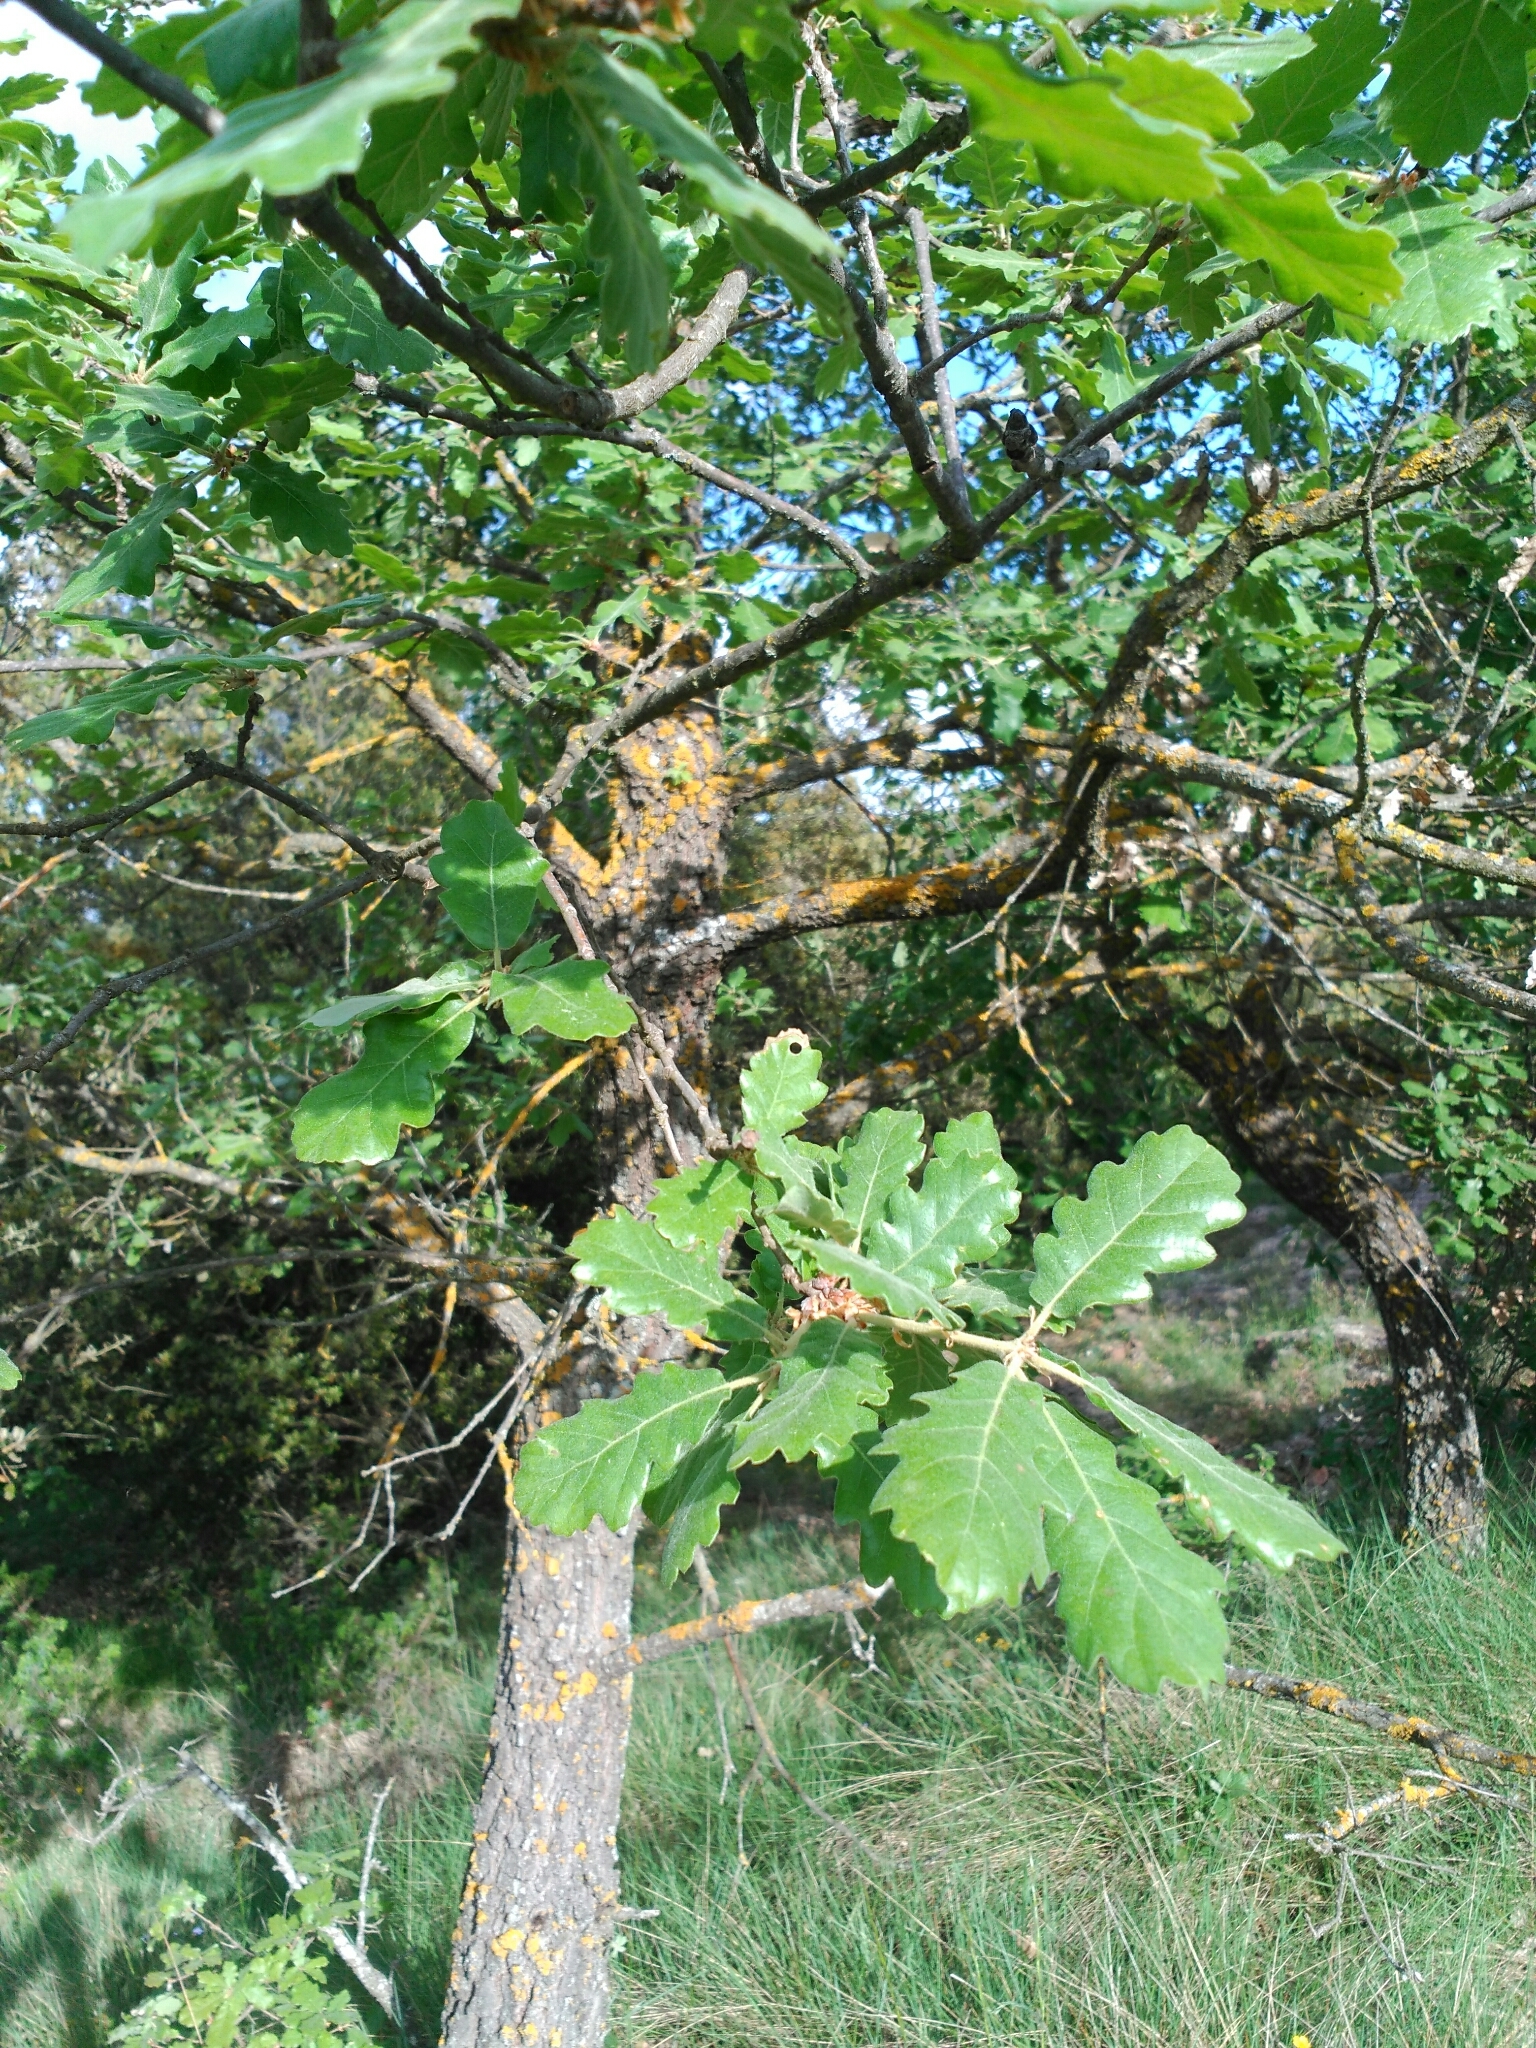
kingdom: Plantae
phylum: Tracheophyta
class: Magnoliopsida
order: Fagales
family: Fagaceae
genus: Quercus
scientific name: Quercus pubescens
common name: Downy oak
